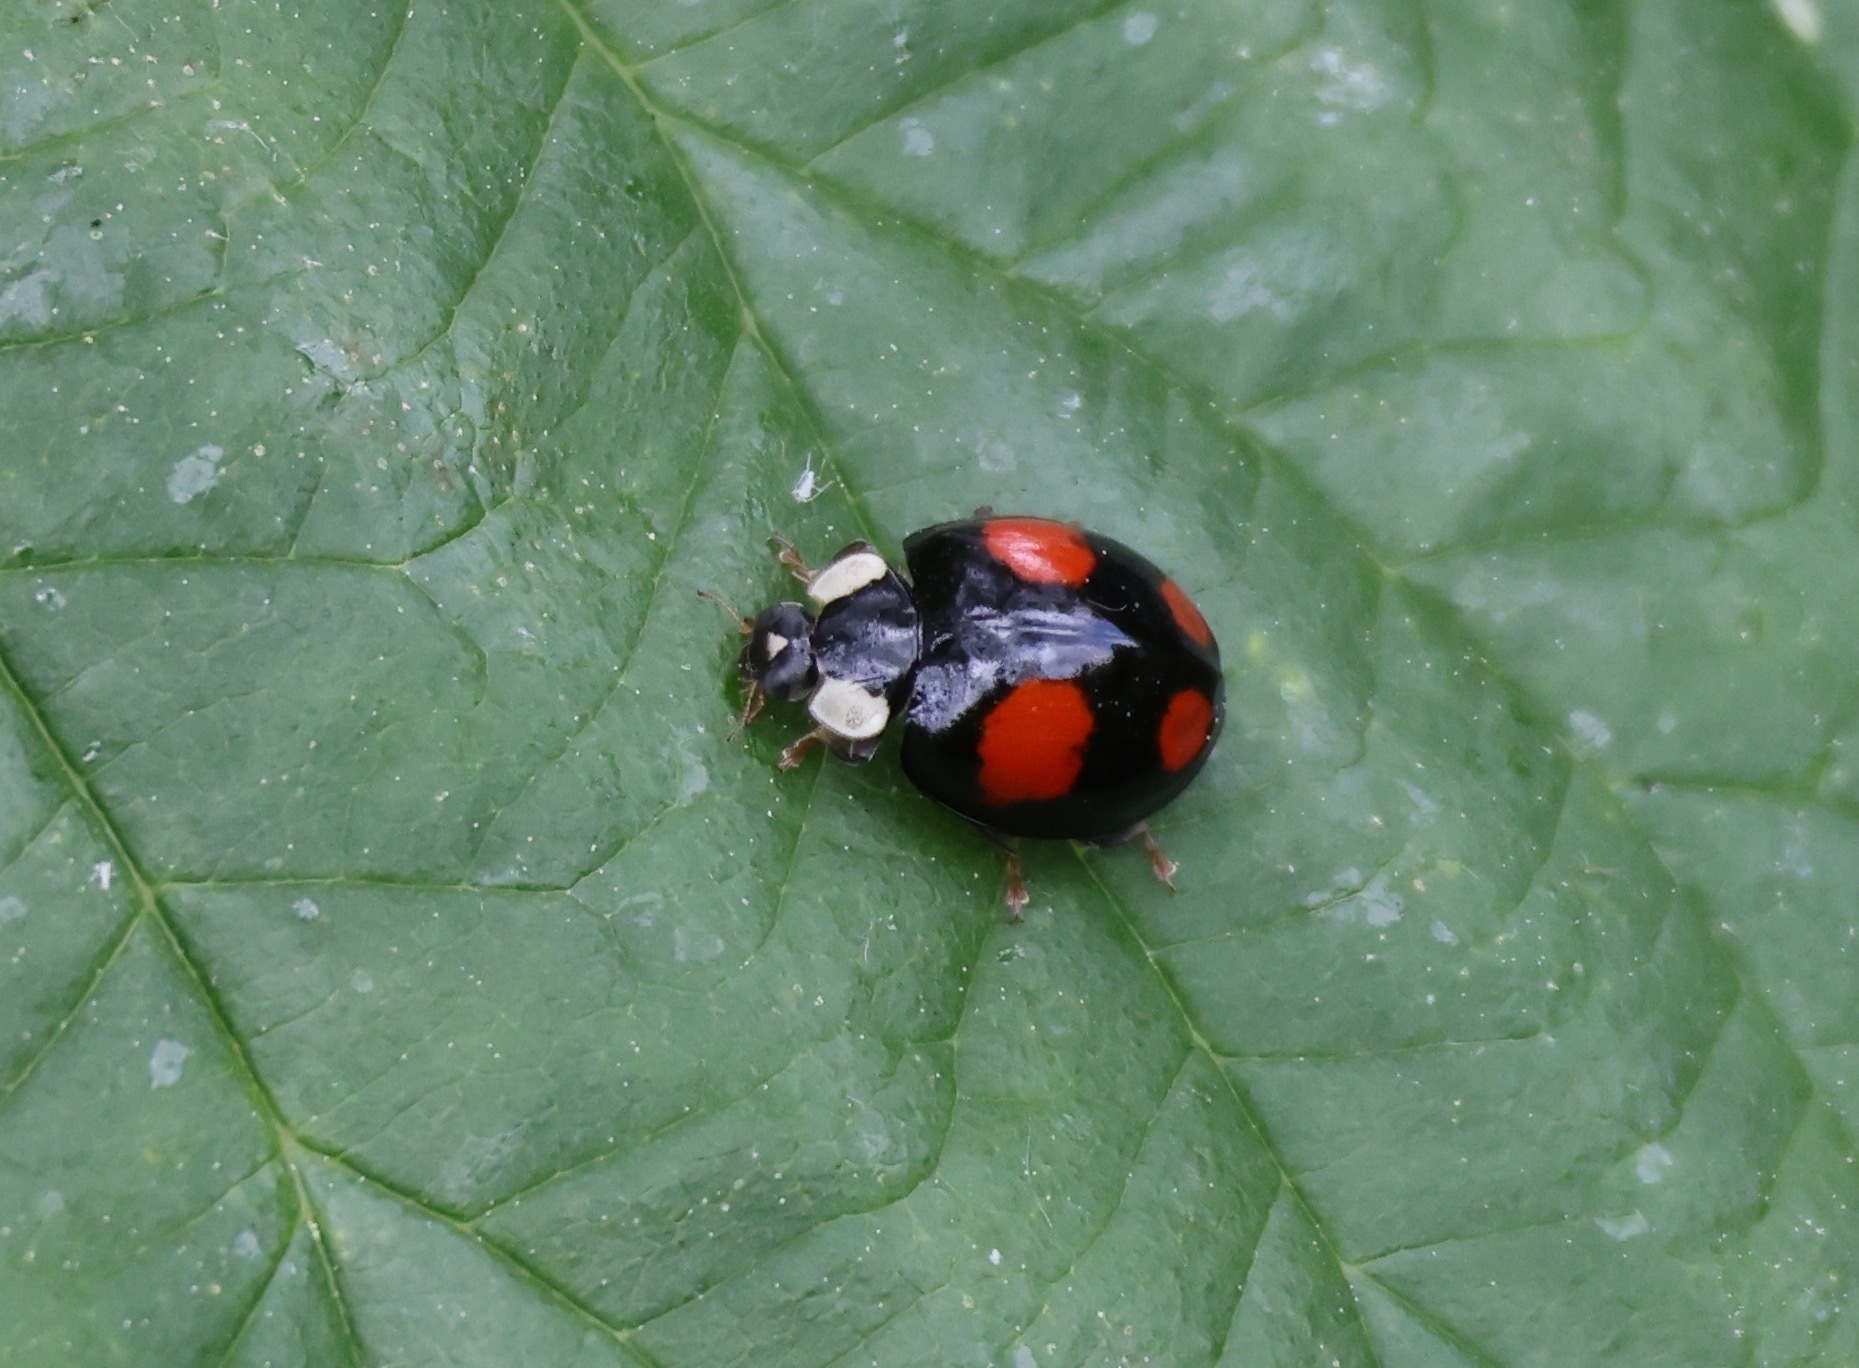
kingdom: Animalia
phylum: Arthropoda
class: Insecta
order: Coleoptera
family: Coccinellidae
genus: Harmonia
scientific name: Harmonia axyridis
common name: Harlequin ladybird
